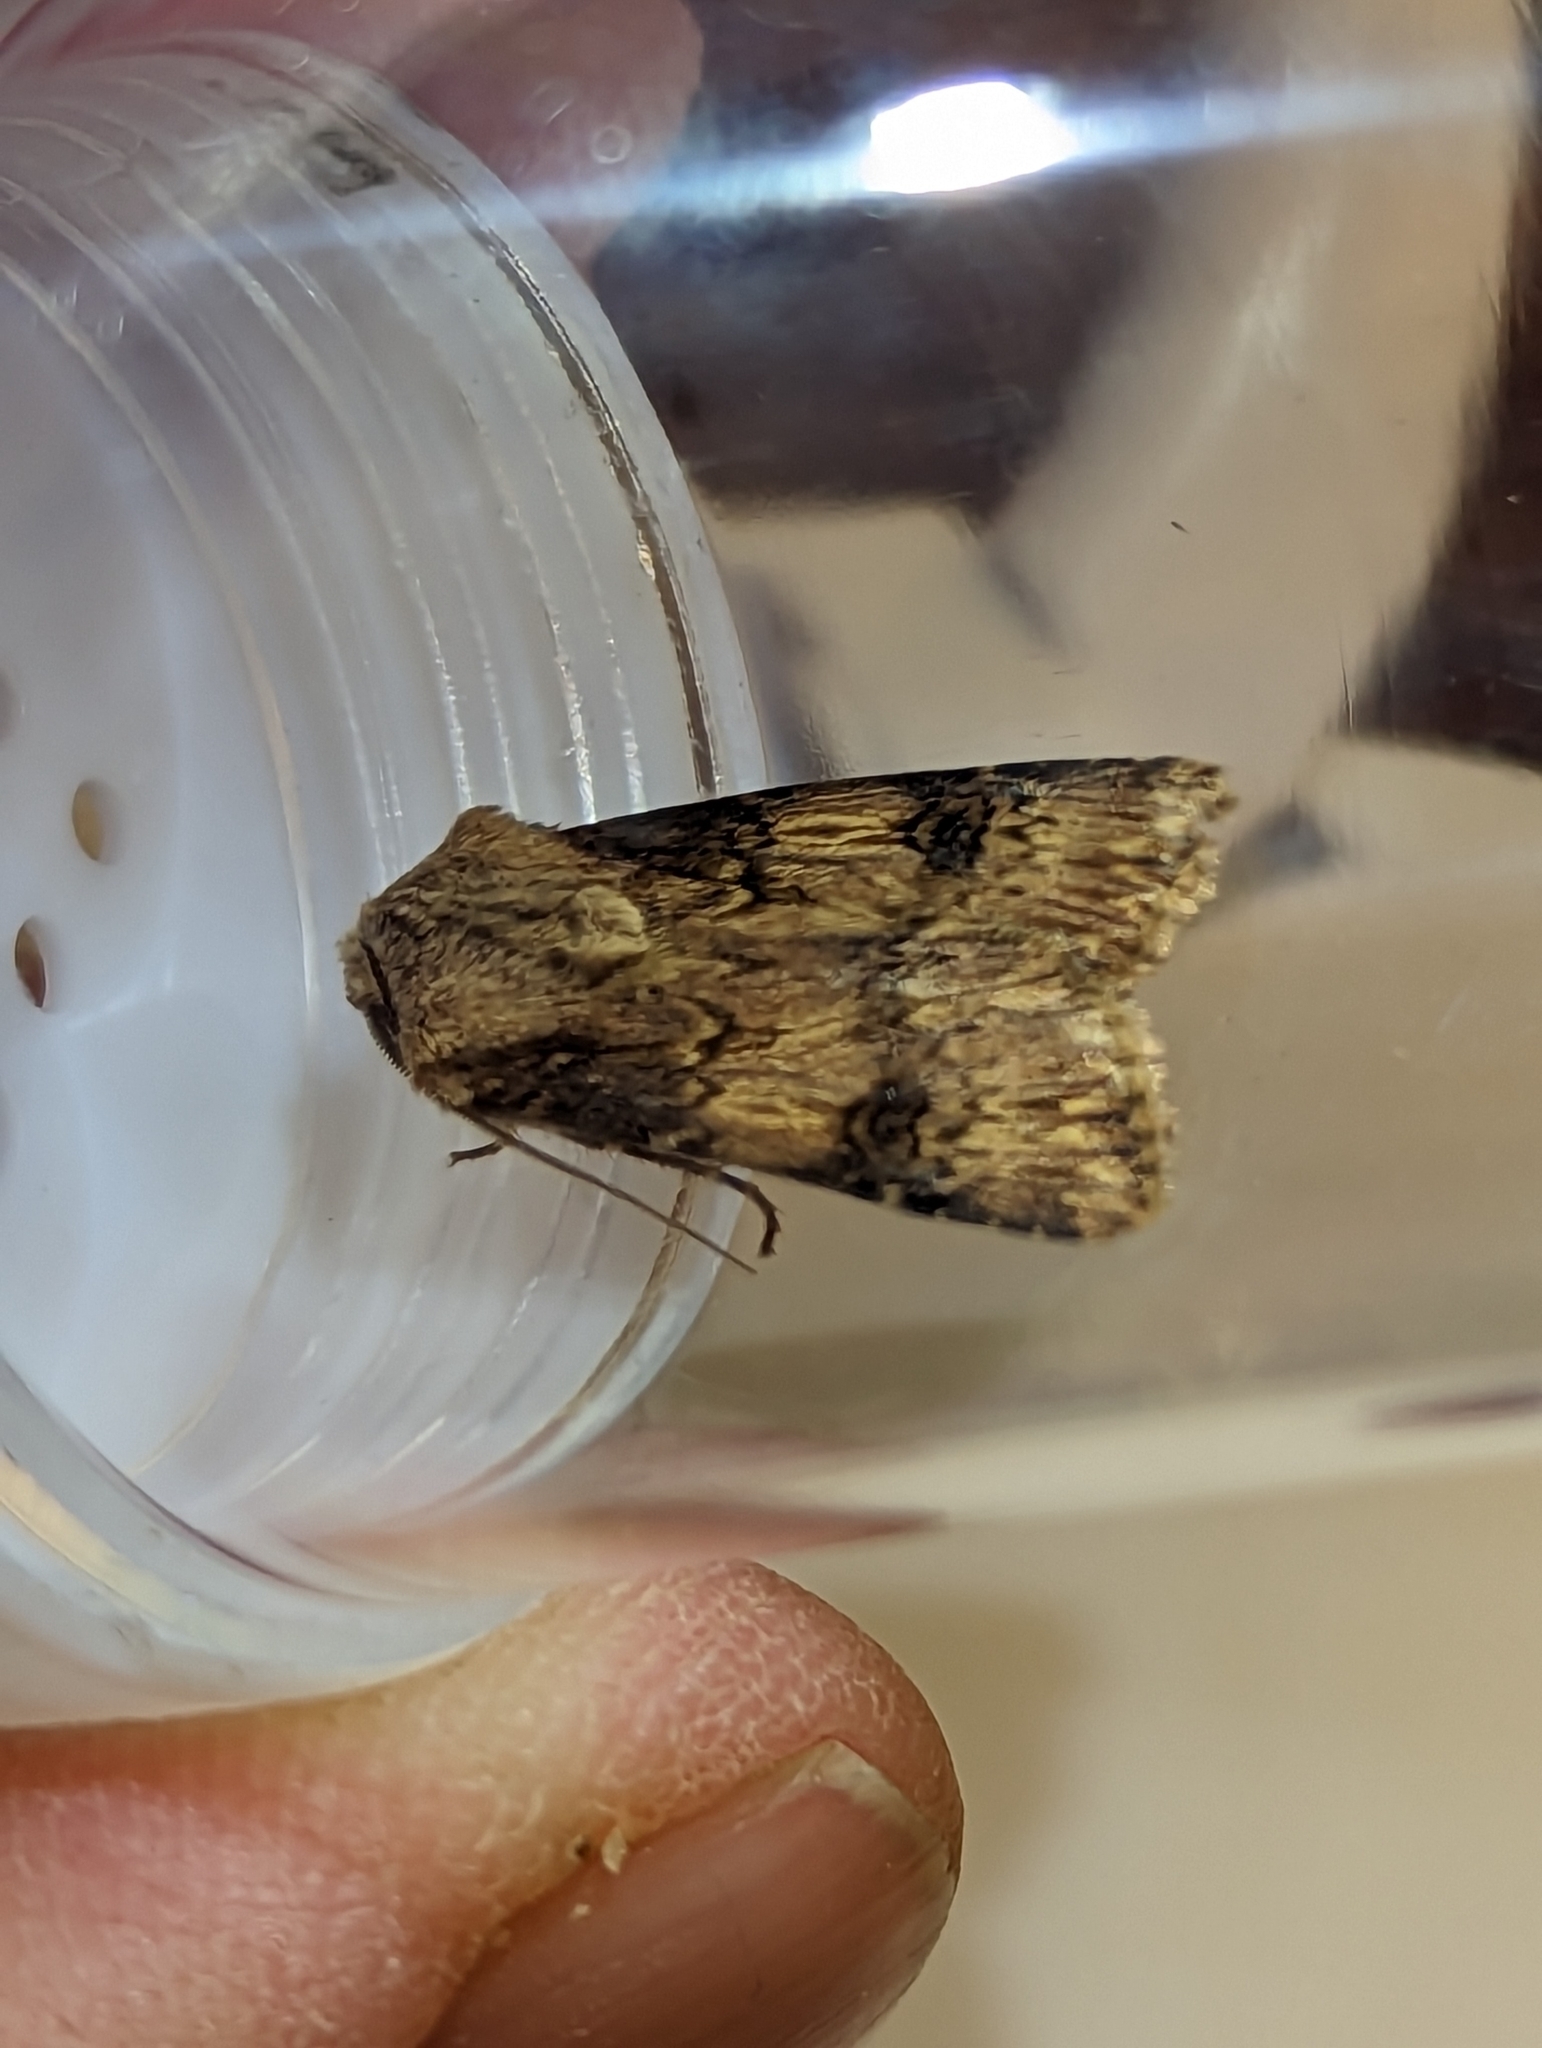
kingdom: Animalia
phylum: Arthropoda
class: Insecta
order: Lepidoptera
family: Noctuidae
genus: Agrotis
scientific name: Agrotis puta
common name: Shuttle-shaped dart
